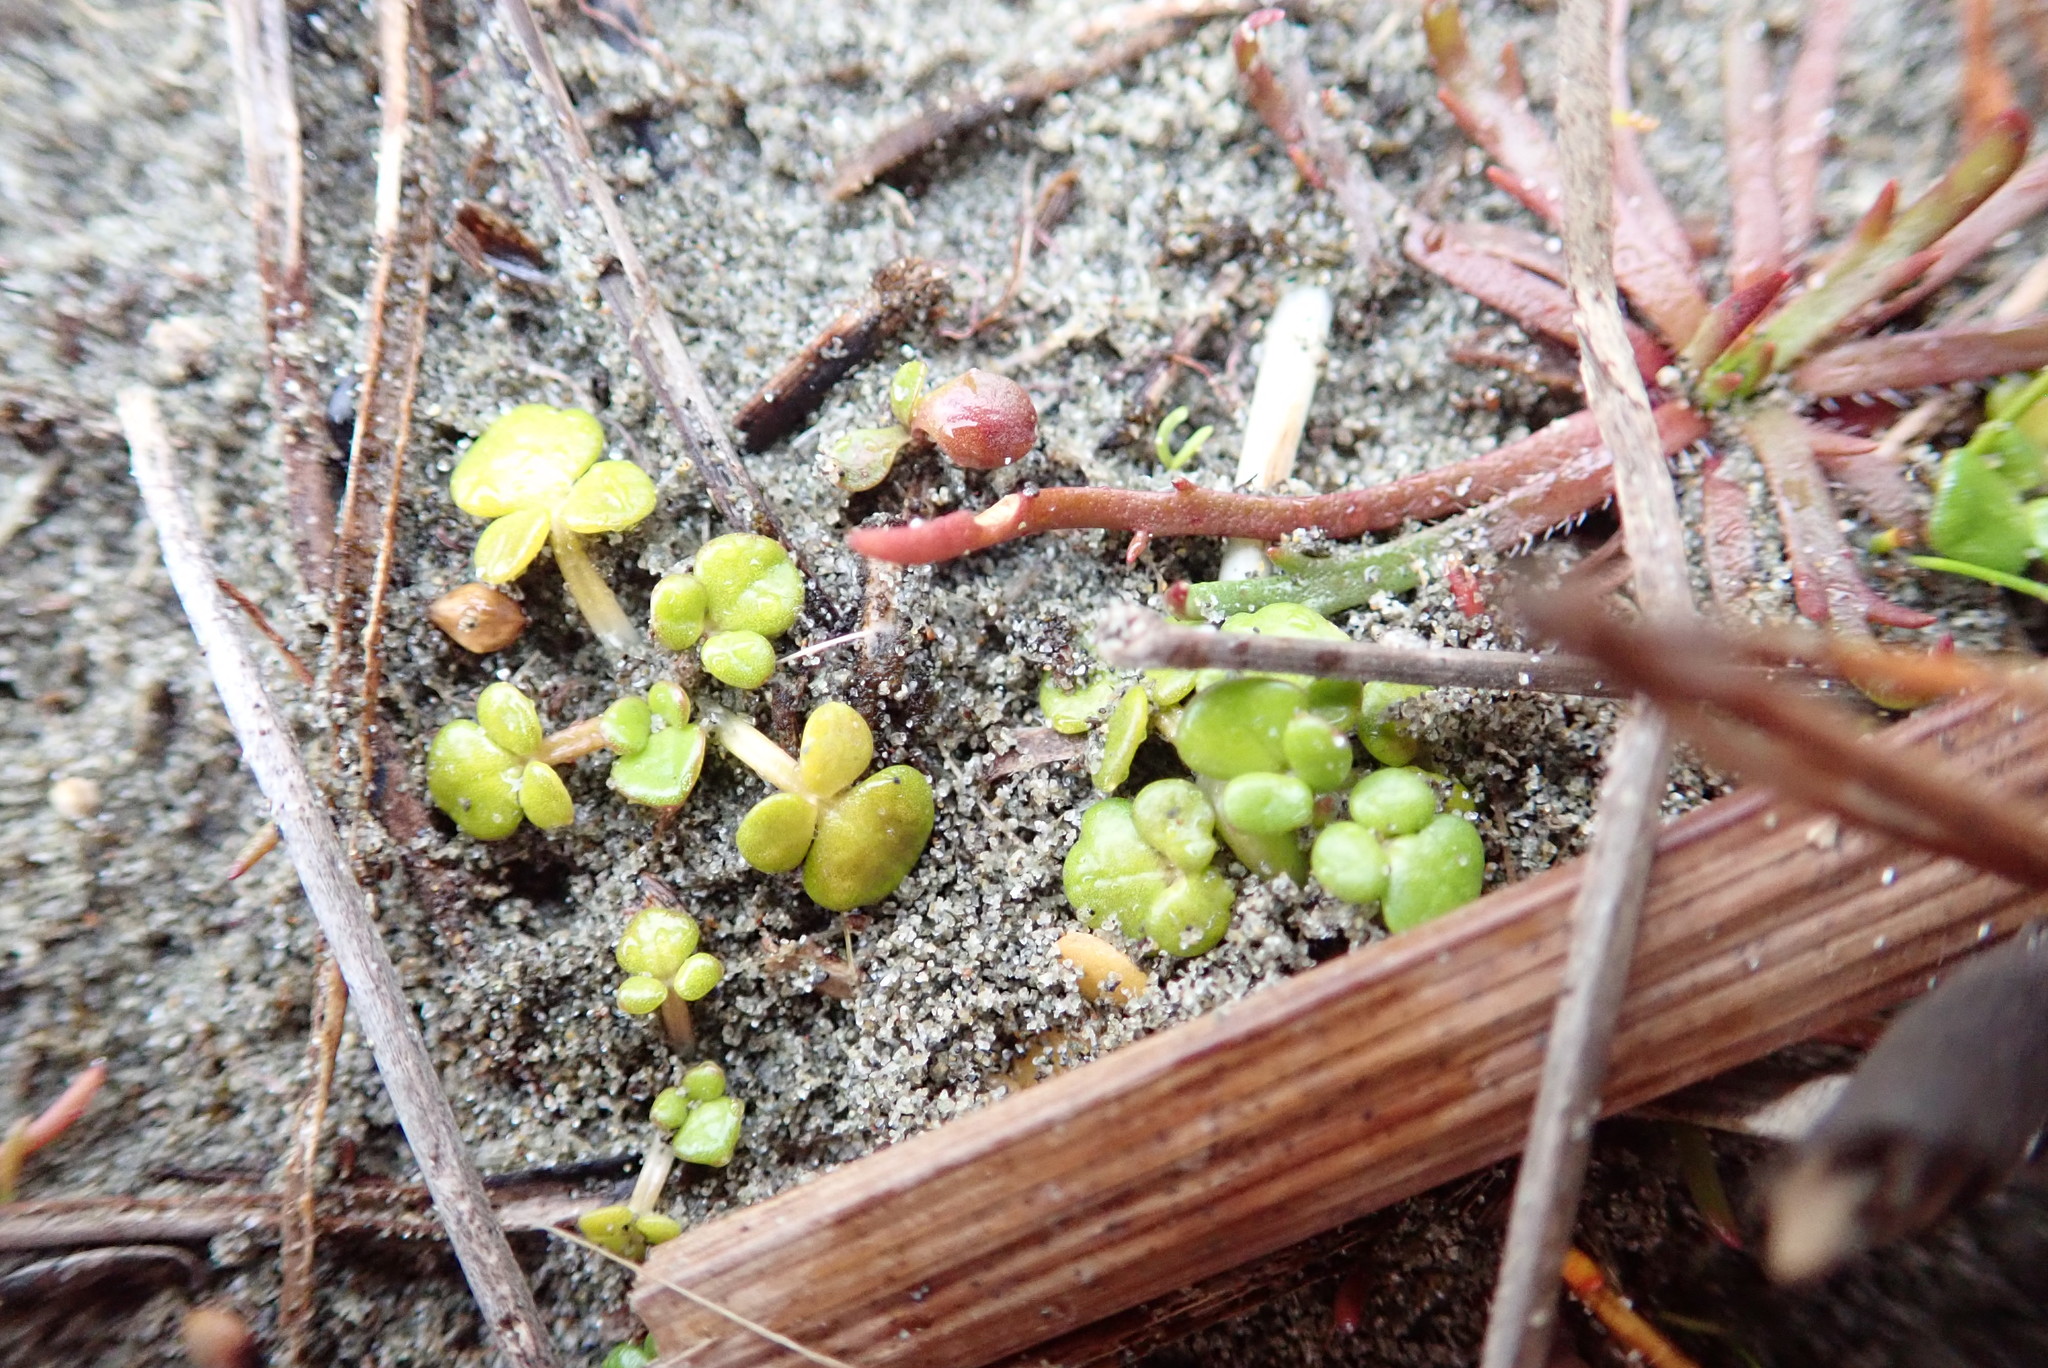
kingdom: Plantae
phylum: Tracheophyta
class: Magnoliopsida
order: Ranunculales
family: Ranunculaceae
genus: Ranunculus
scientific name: Ranunculus acaulis
